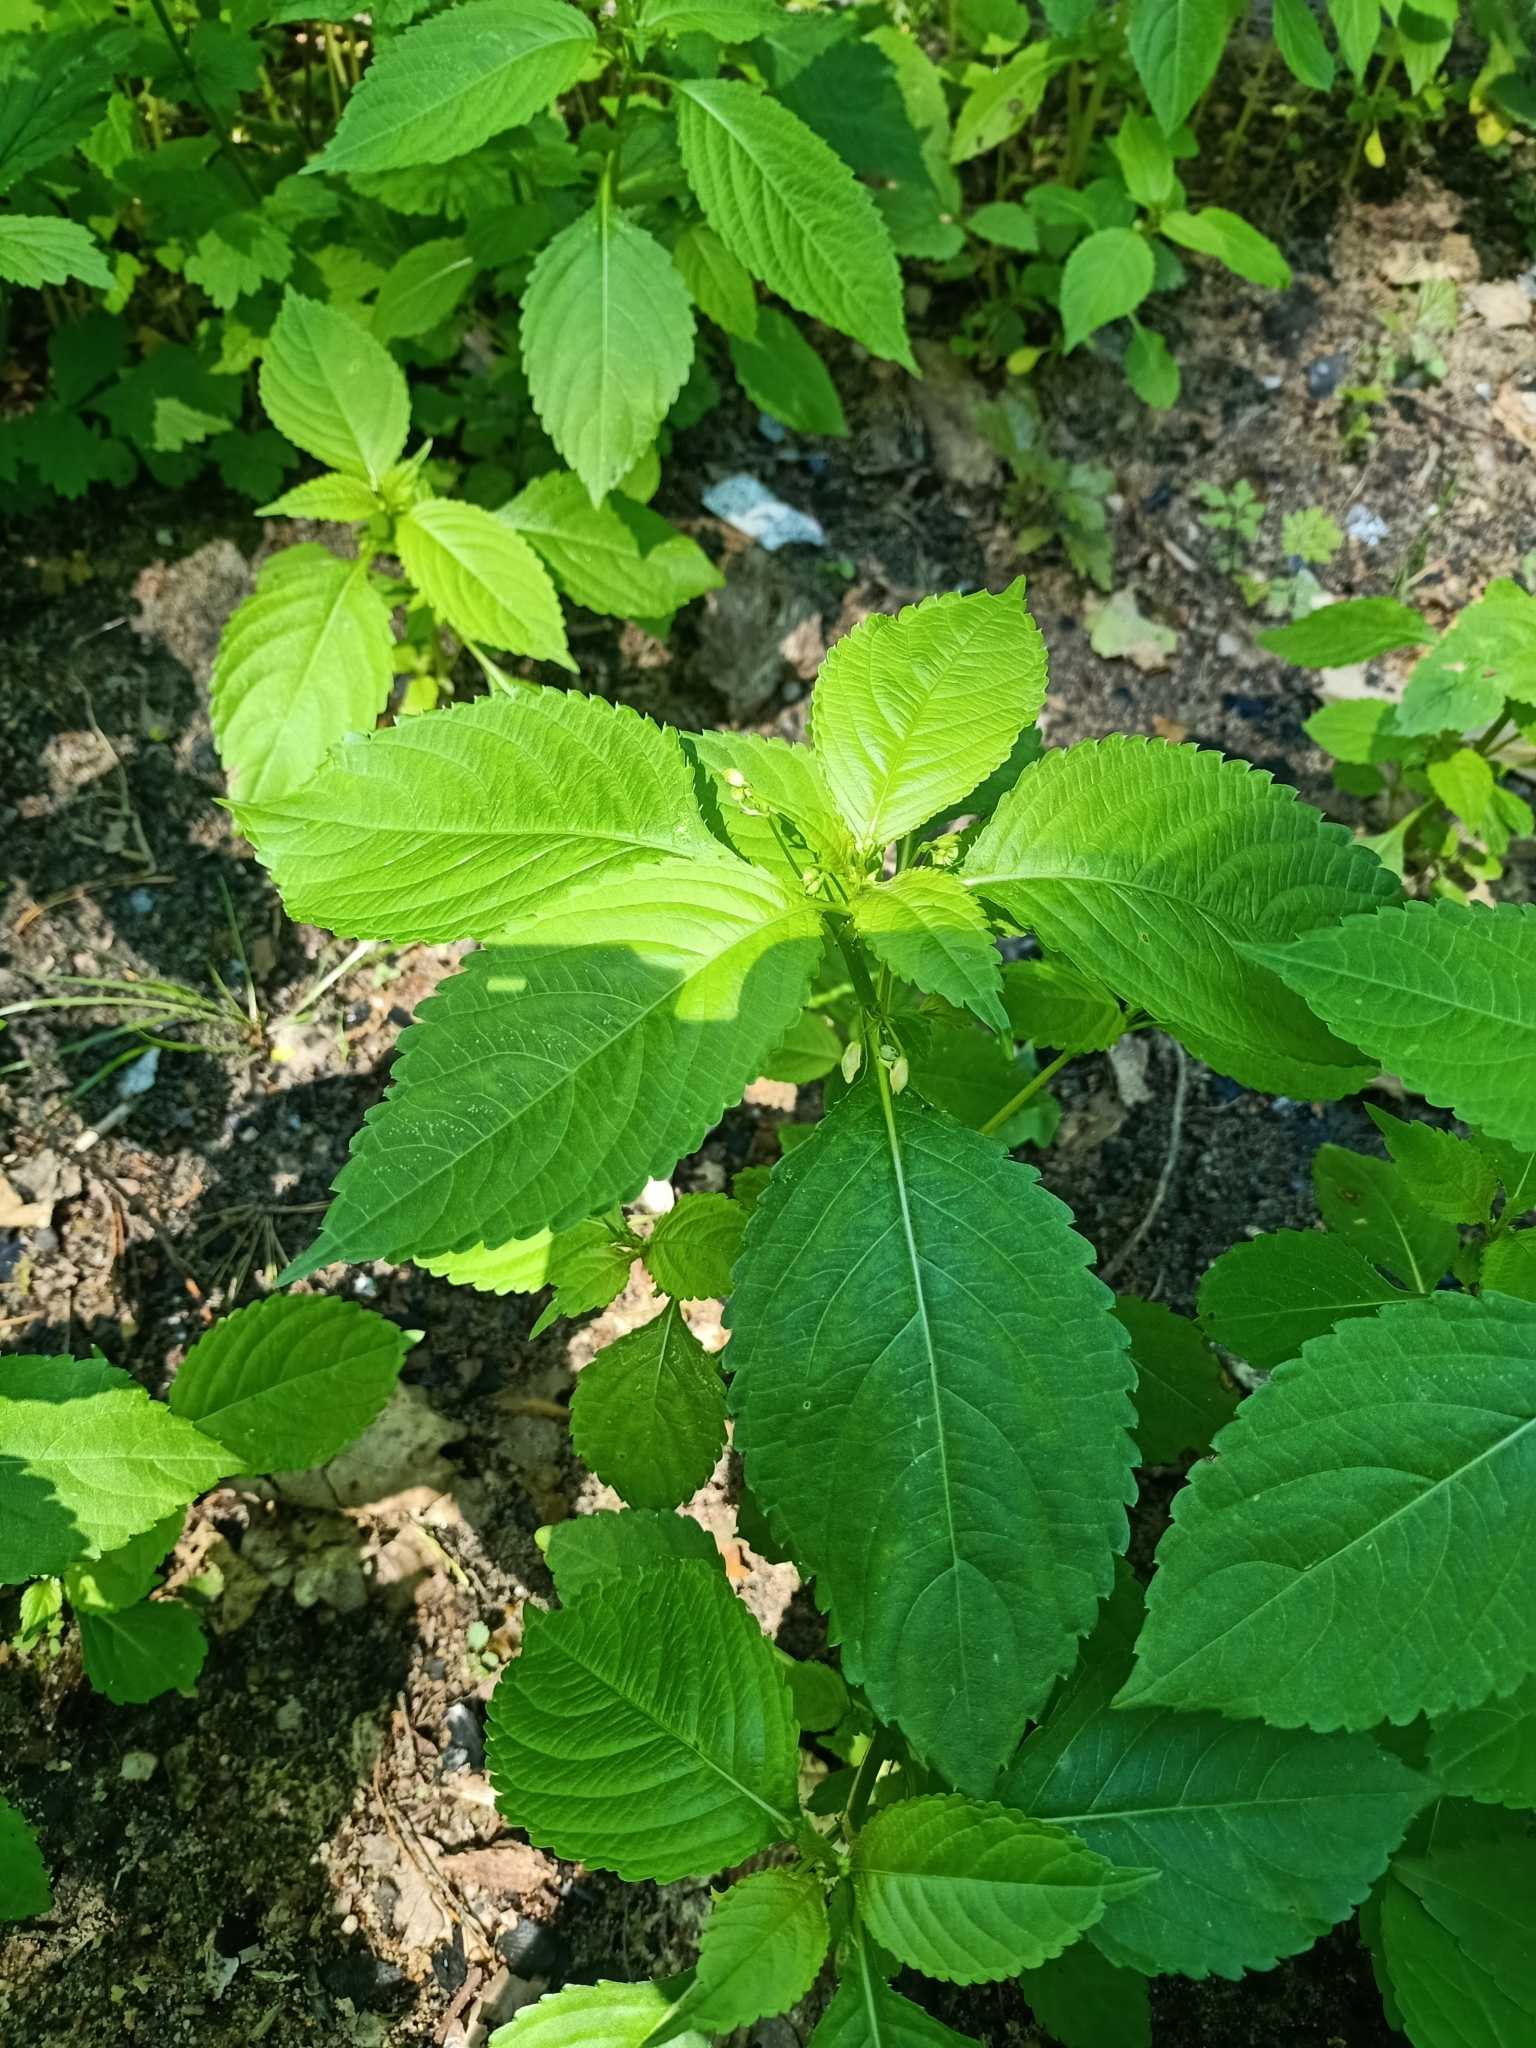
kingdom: Plantae
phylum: Tracheophyta
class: Magnoliopsida
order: Ericales
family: Balsaminaceae
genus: Impatiens
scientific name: Impatiens parviflora
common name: Small balsam
